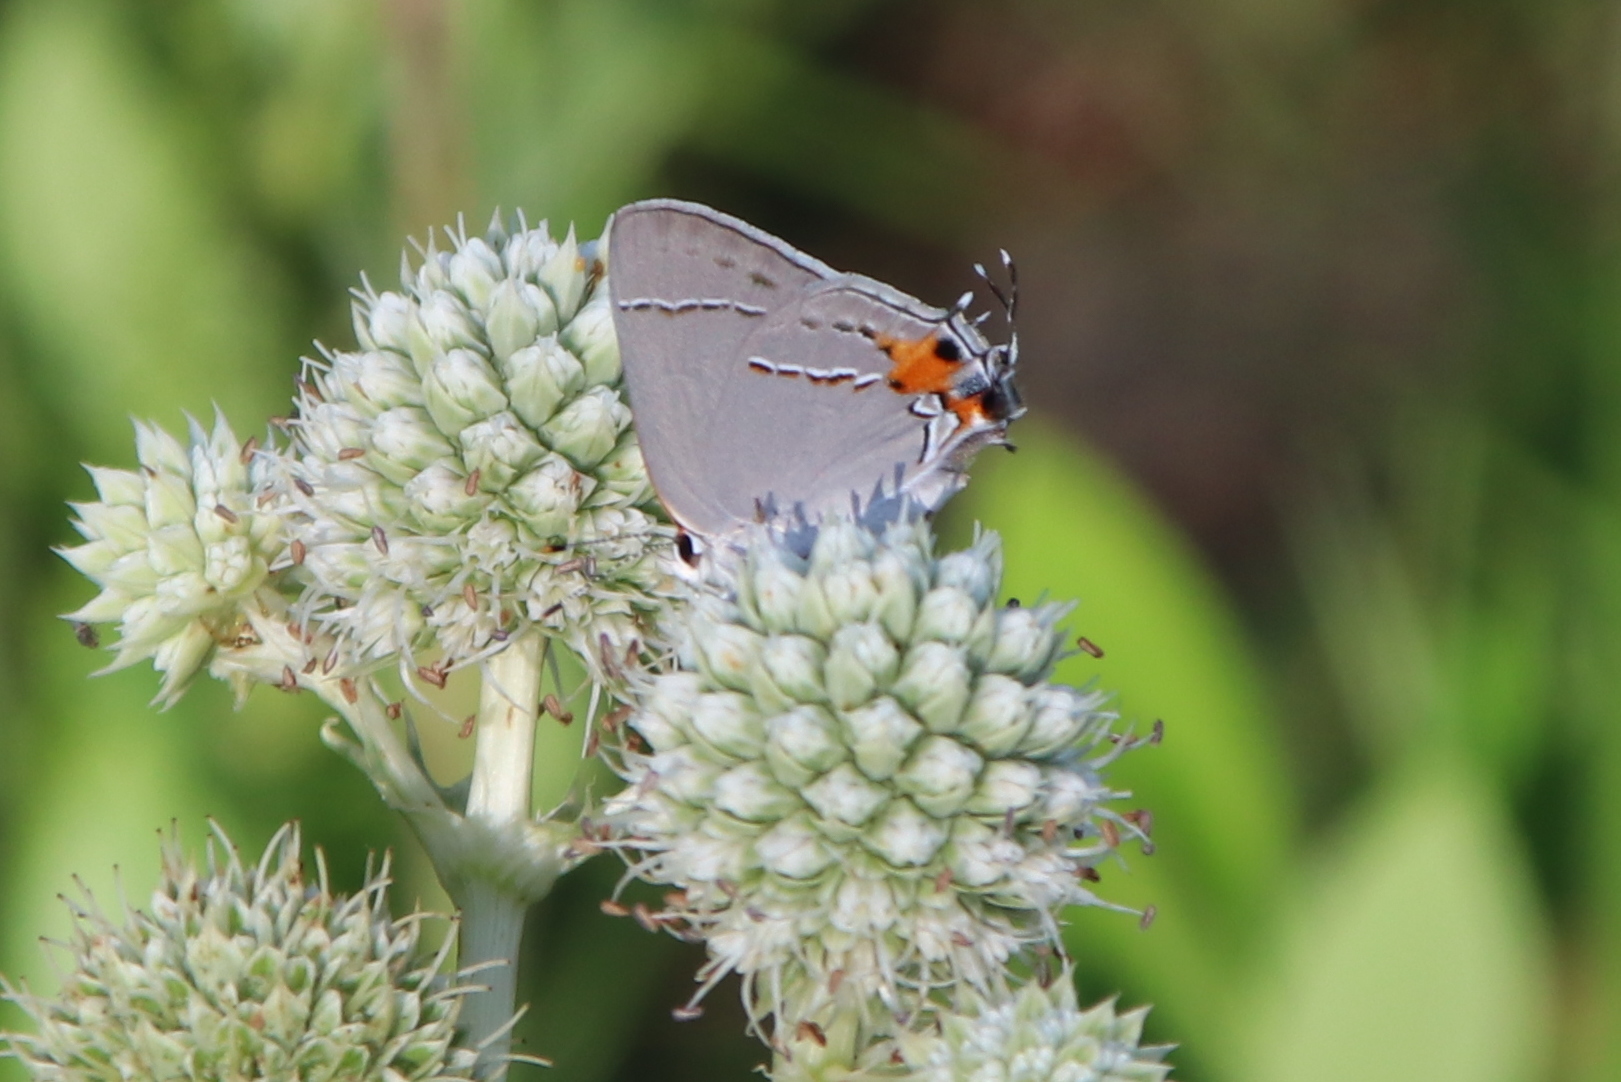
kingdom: Animalia
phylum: Arthropoda
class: Insecta
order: Lepidoptera
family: Lycaenidae
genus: Strymon
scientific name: Strymon melinus
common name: Gray hairstreak
